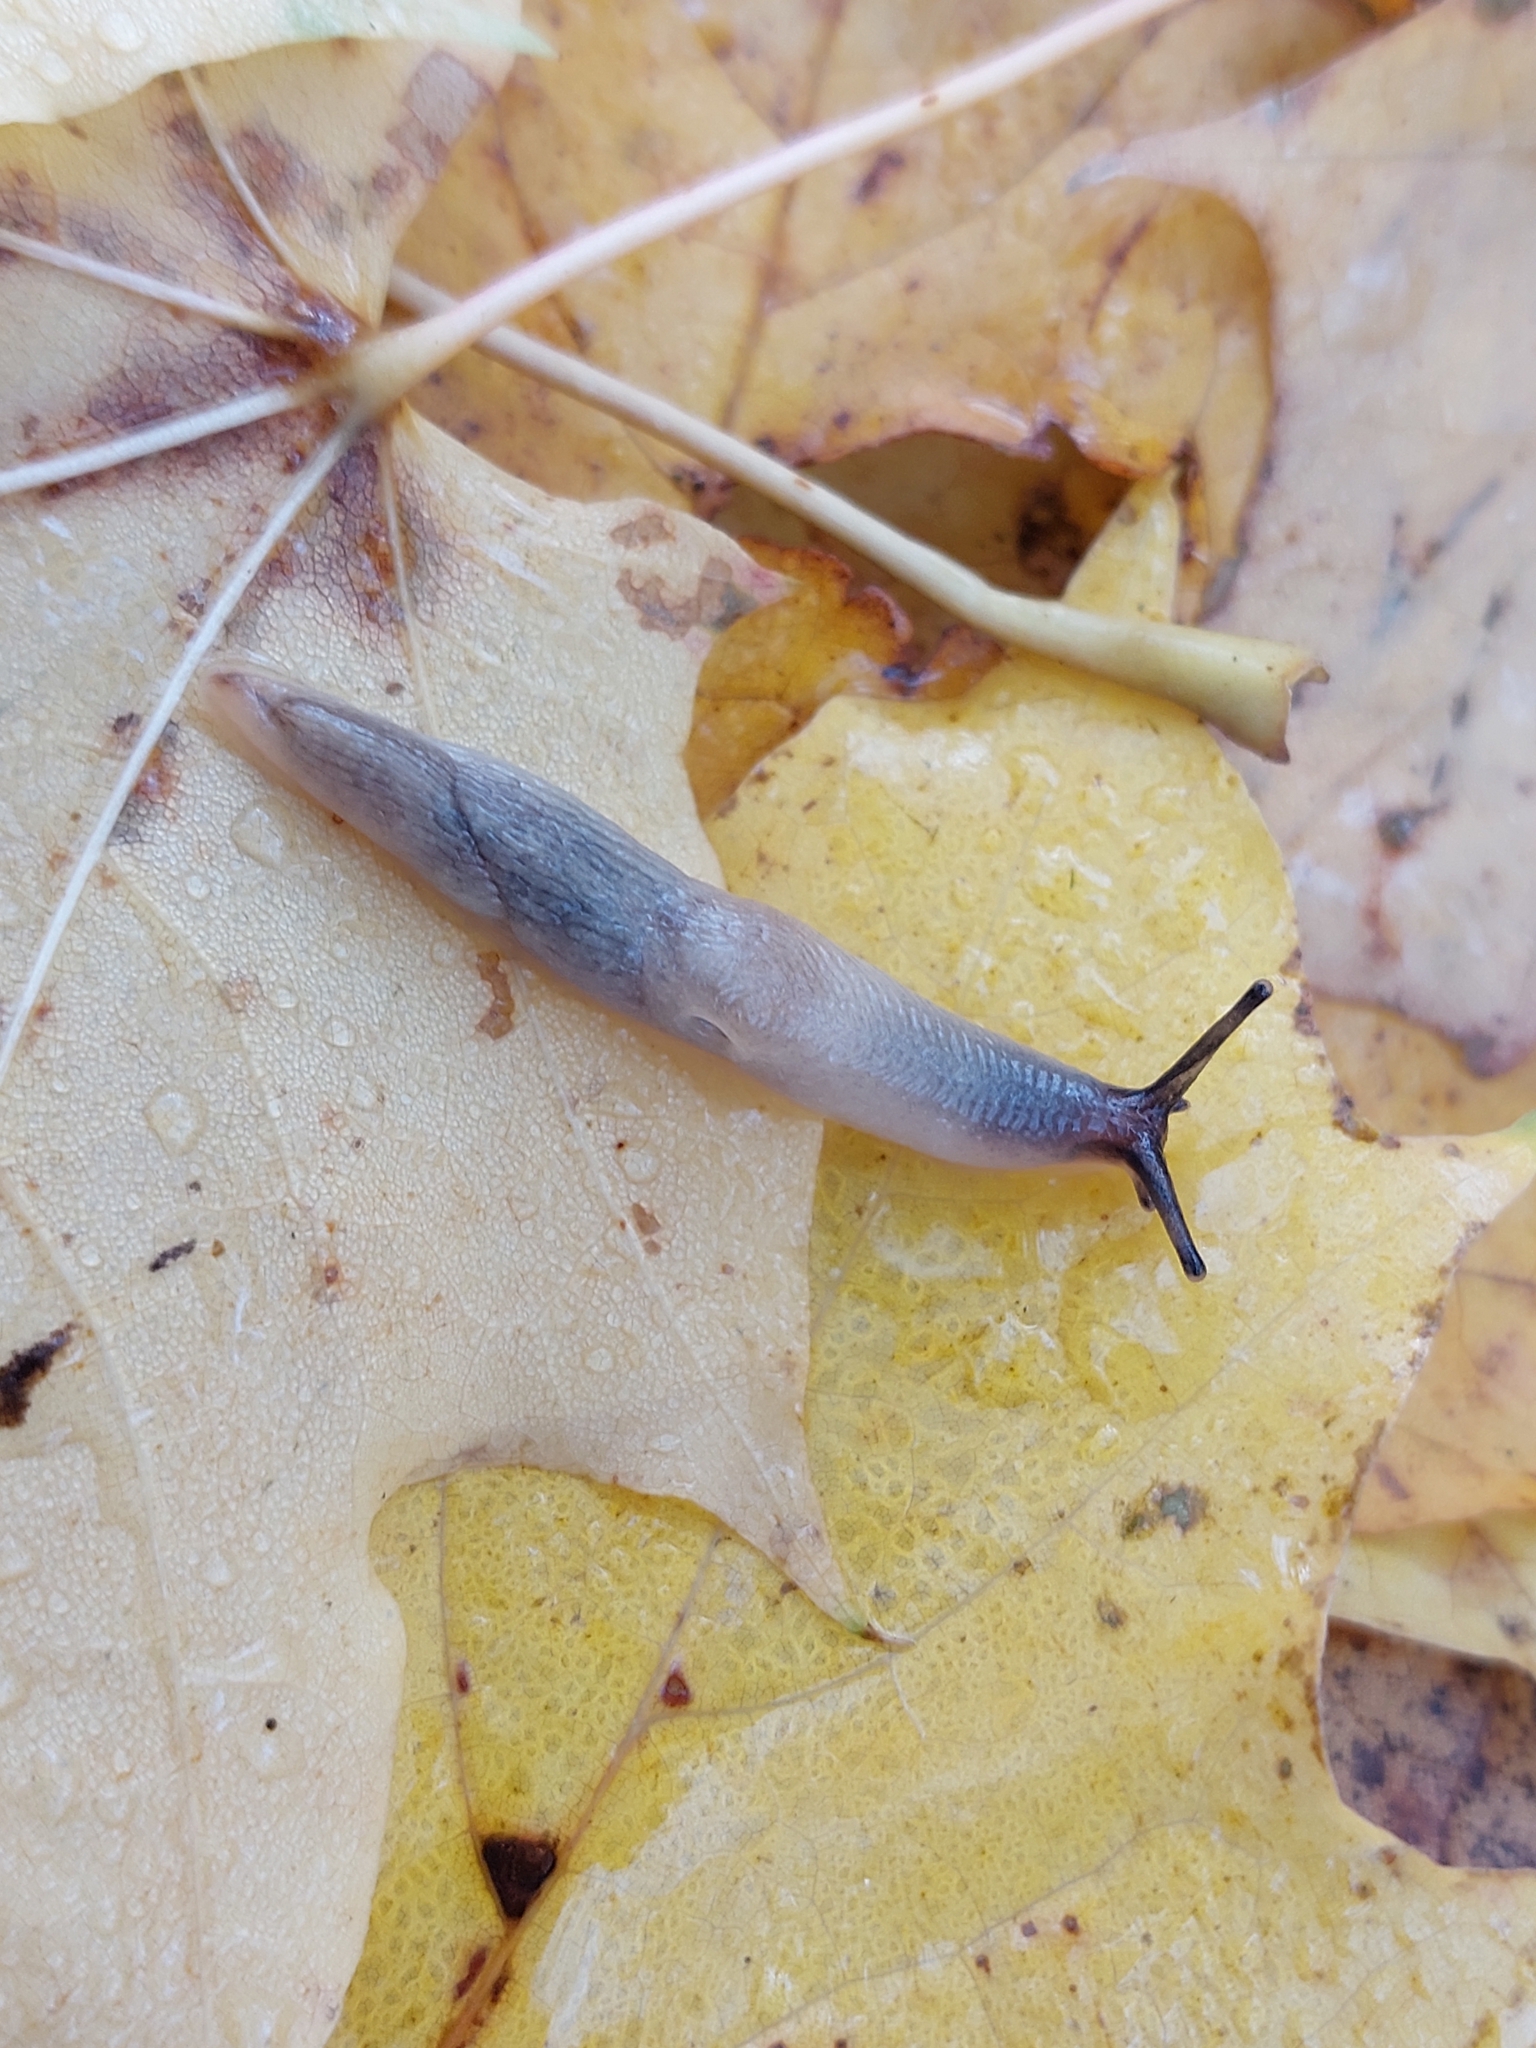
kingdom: Animalia
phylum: Mollusca
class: Gastropoda
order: Stylommatophora
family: Agriolimacidae
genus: Krynickillus
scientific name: Krynickillus melanocephalus
